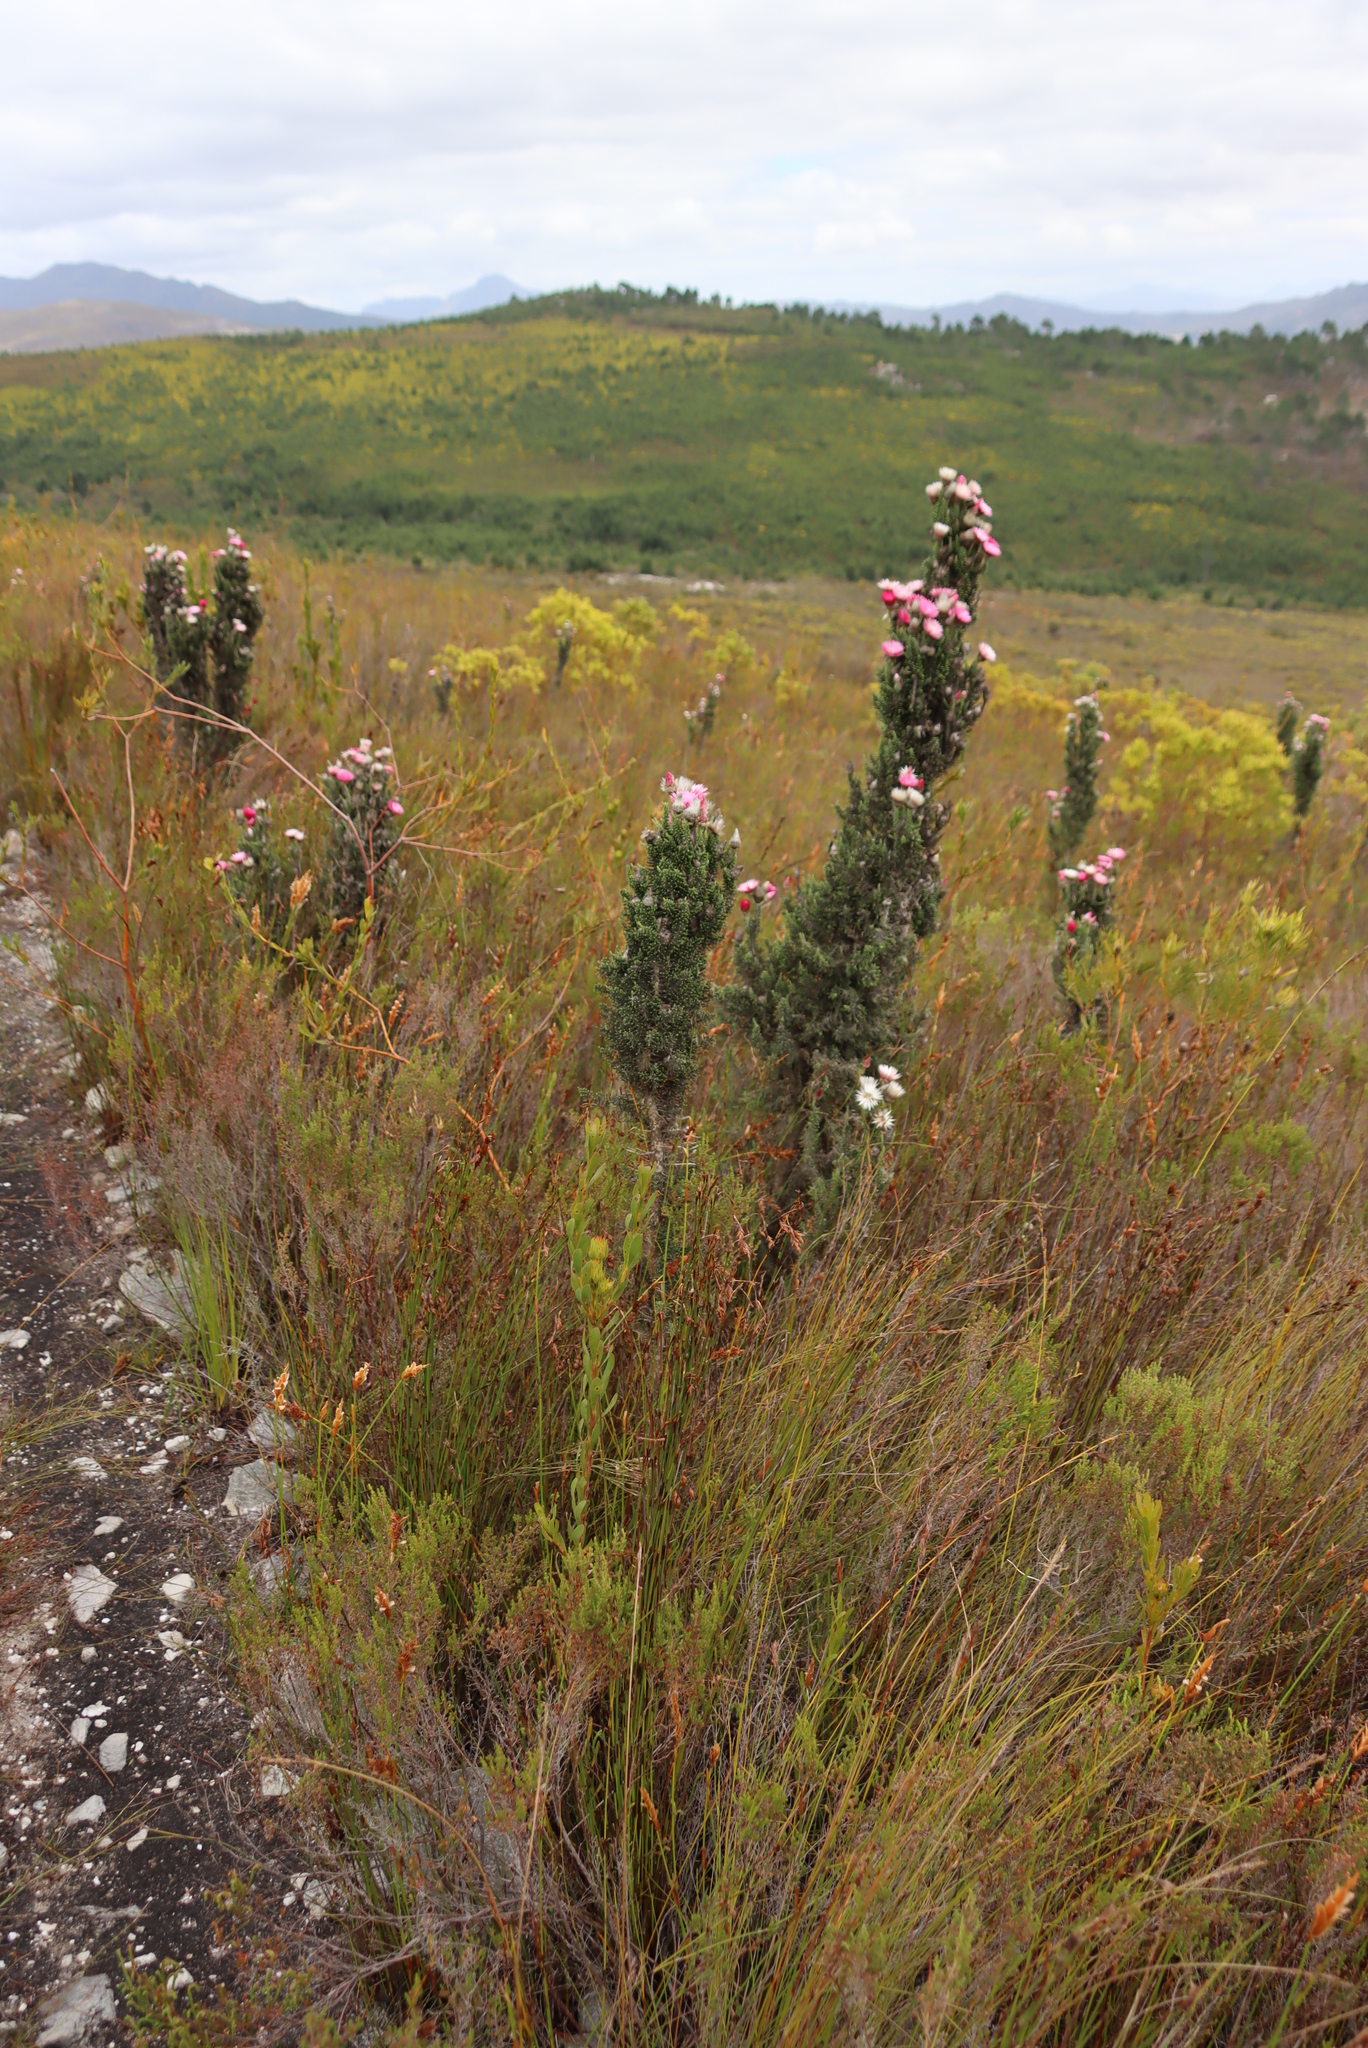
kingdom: Plantae
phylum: Tracheophyta
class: Magnoliopsida
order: Asterales
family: Asteraceae
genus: Phaenocoma
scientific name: Phaenocoma prolifera
